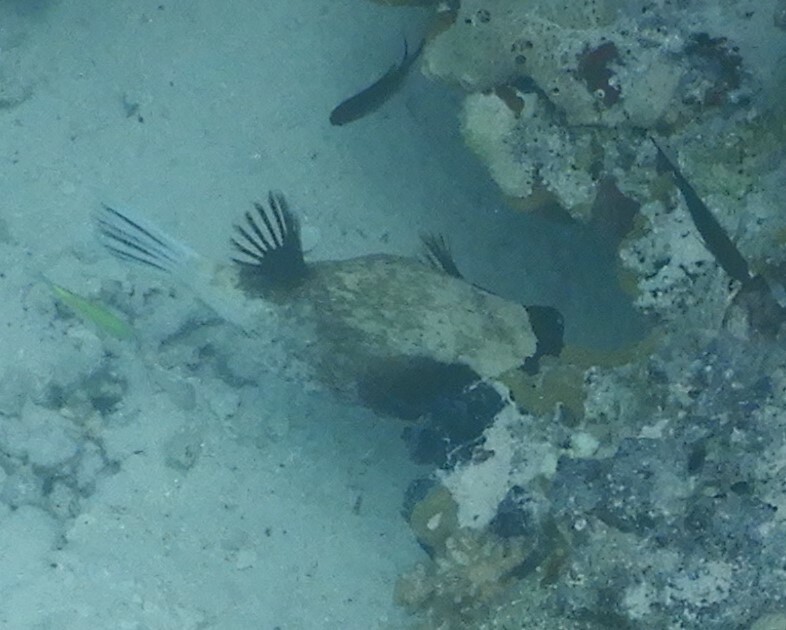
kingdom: Animalia
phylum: Chordata
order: Tetraodontiformes
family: Tetraodontidae
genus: Arothron
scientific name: Arothron diadematus
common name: Masked puffer
